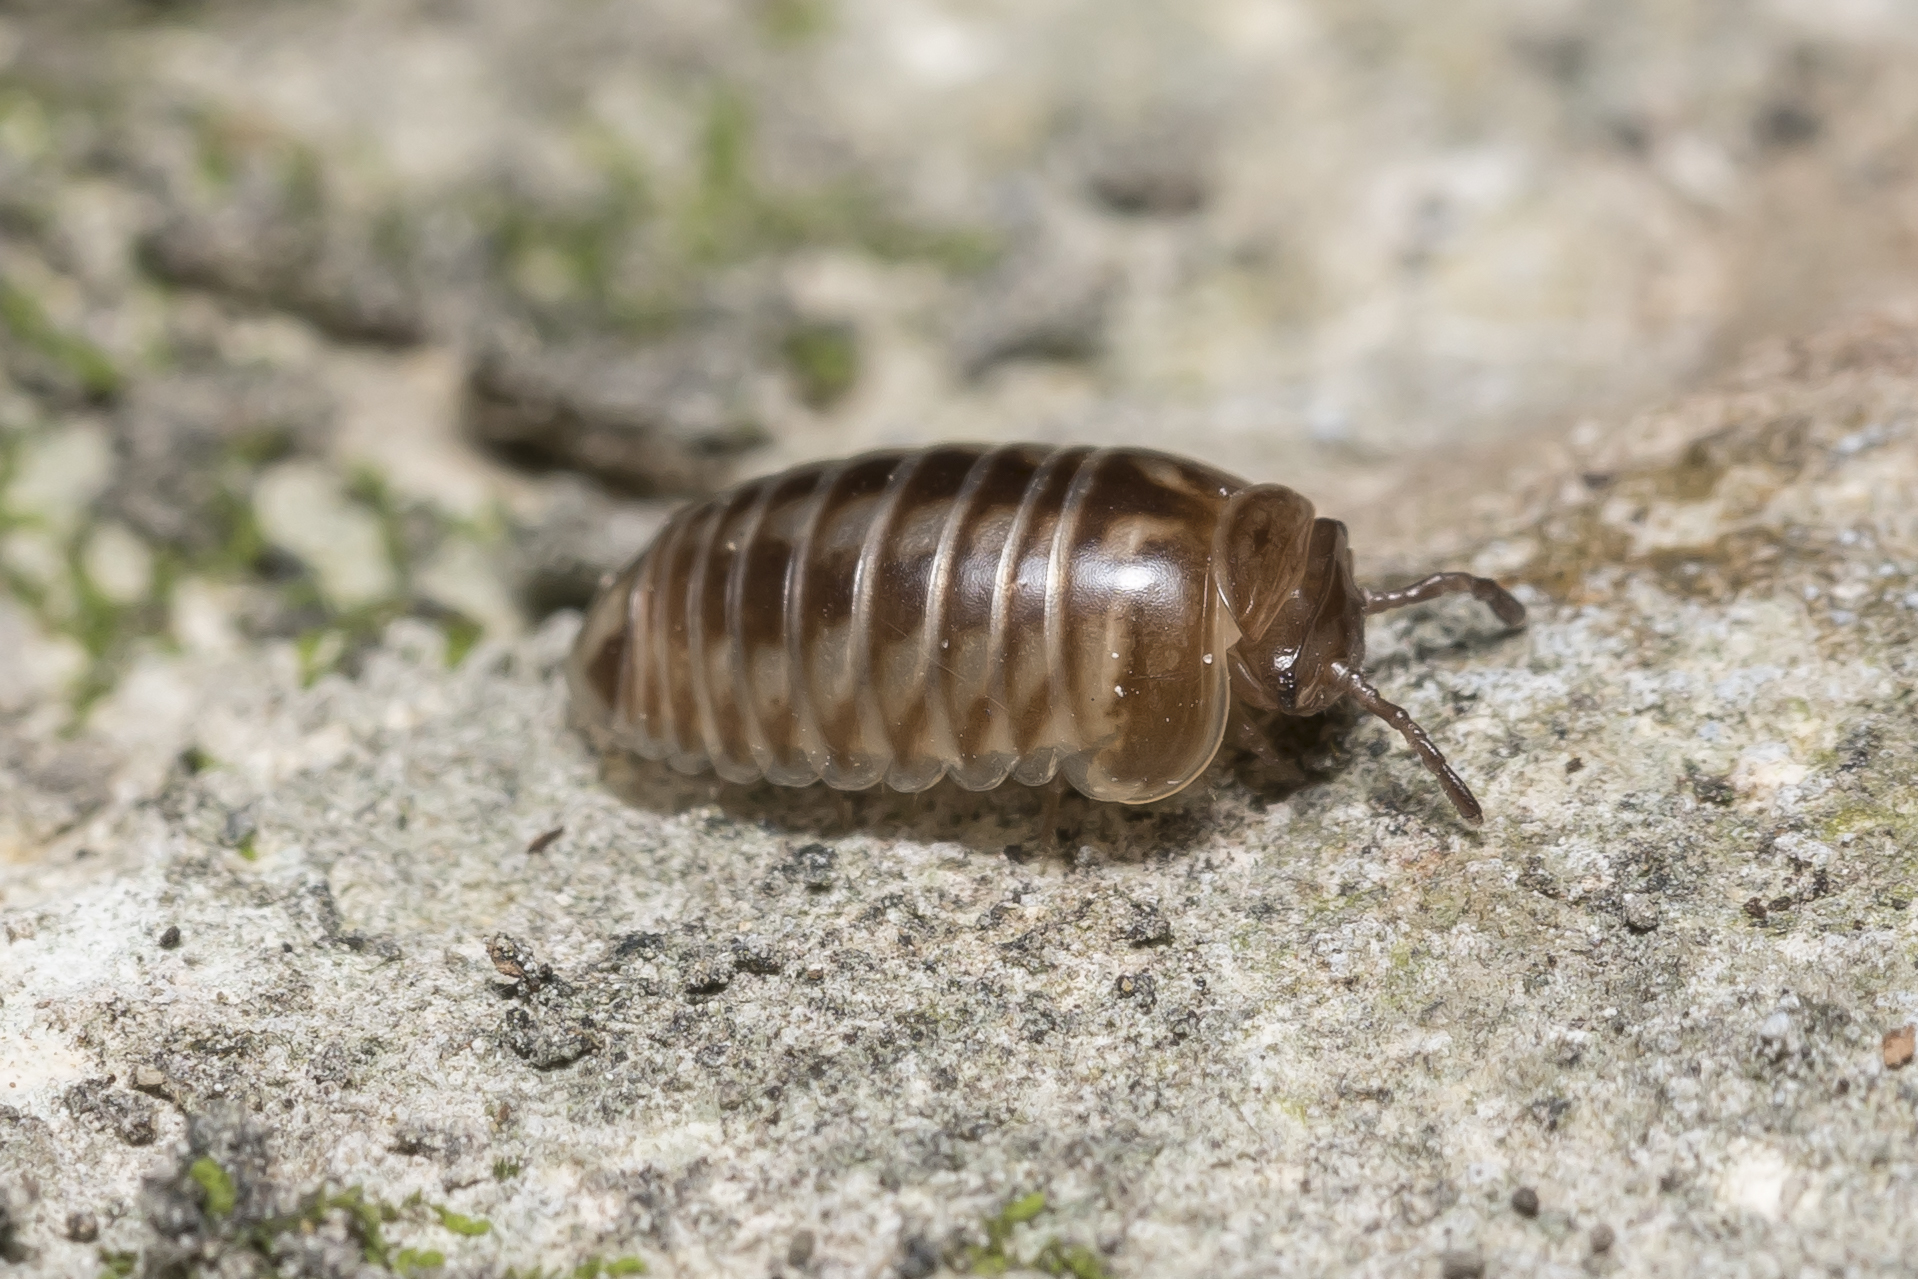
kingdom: Animalia
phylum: Arthropoda
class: Diplopoda
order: Glomerida
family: Glomeridae
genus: Glomeris
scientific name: Glomeris marginata
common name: Bordered pill millipede
